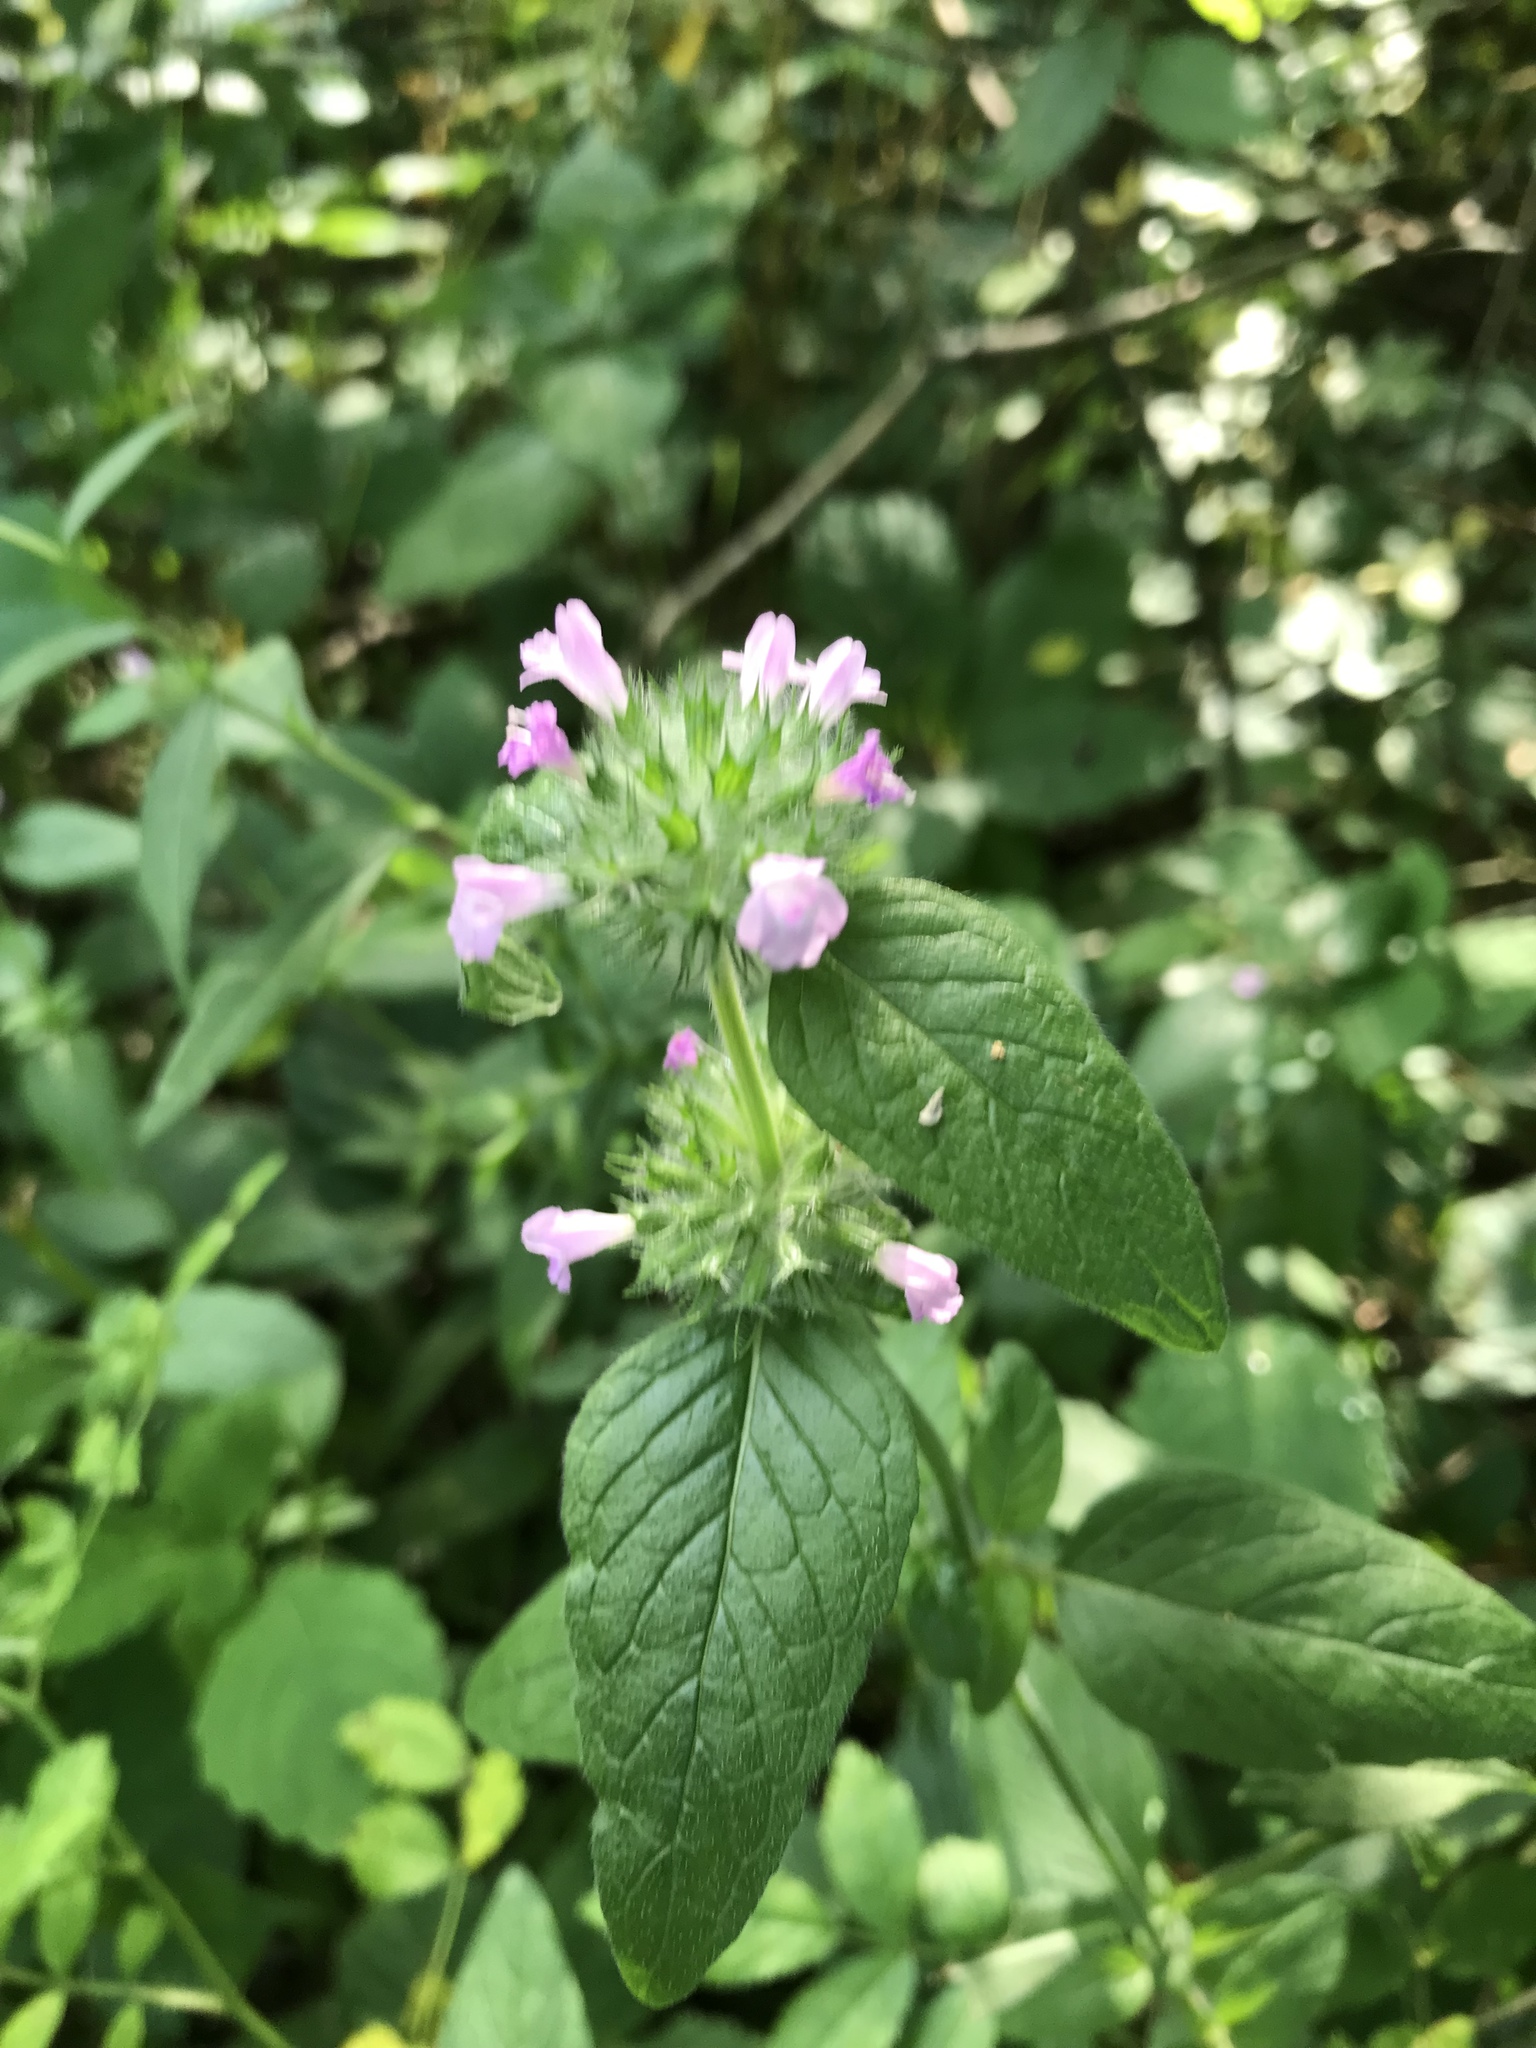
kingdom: Plantae
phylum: Tracheophyta
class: Magnoliopsida
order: Lamiales
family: Lamiaceae
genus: Clinopodium
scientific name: Clinopodium vulgare
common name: Wild basil
